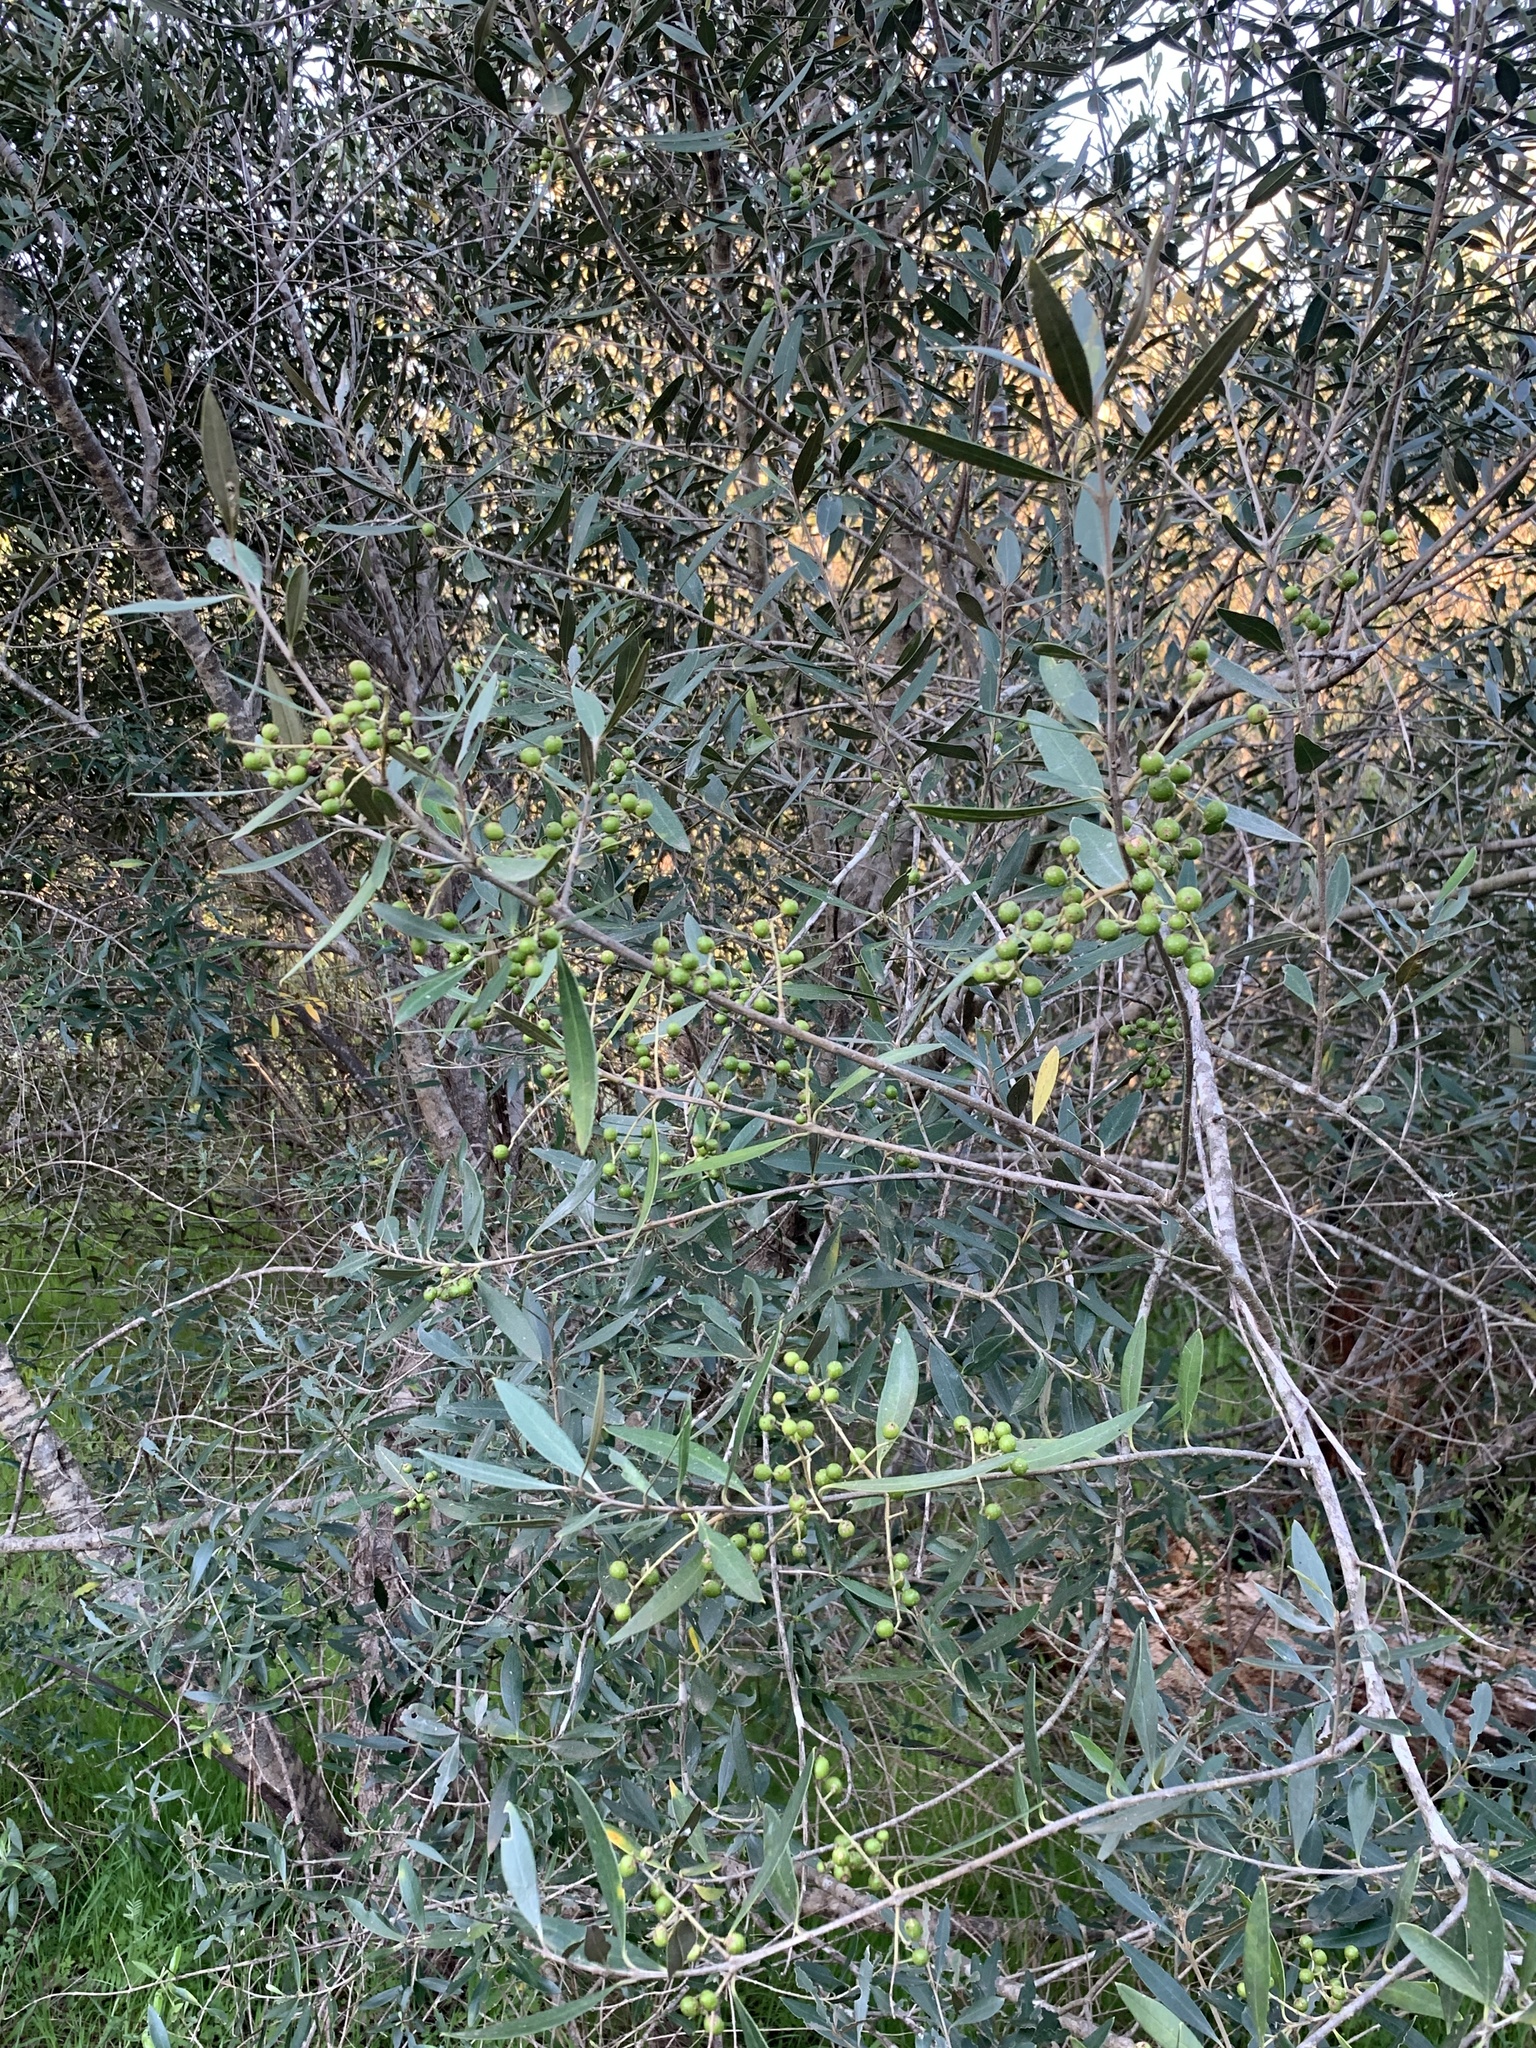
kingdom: Plantae
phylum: Tracheophyta
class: Magnoliopsida
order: Lamiales
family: Oleaceae
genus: Olea
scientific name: Olea europaea
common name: Olive
